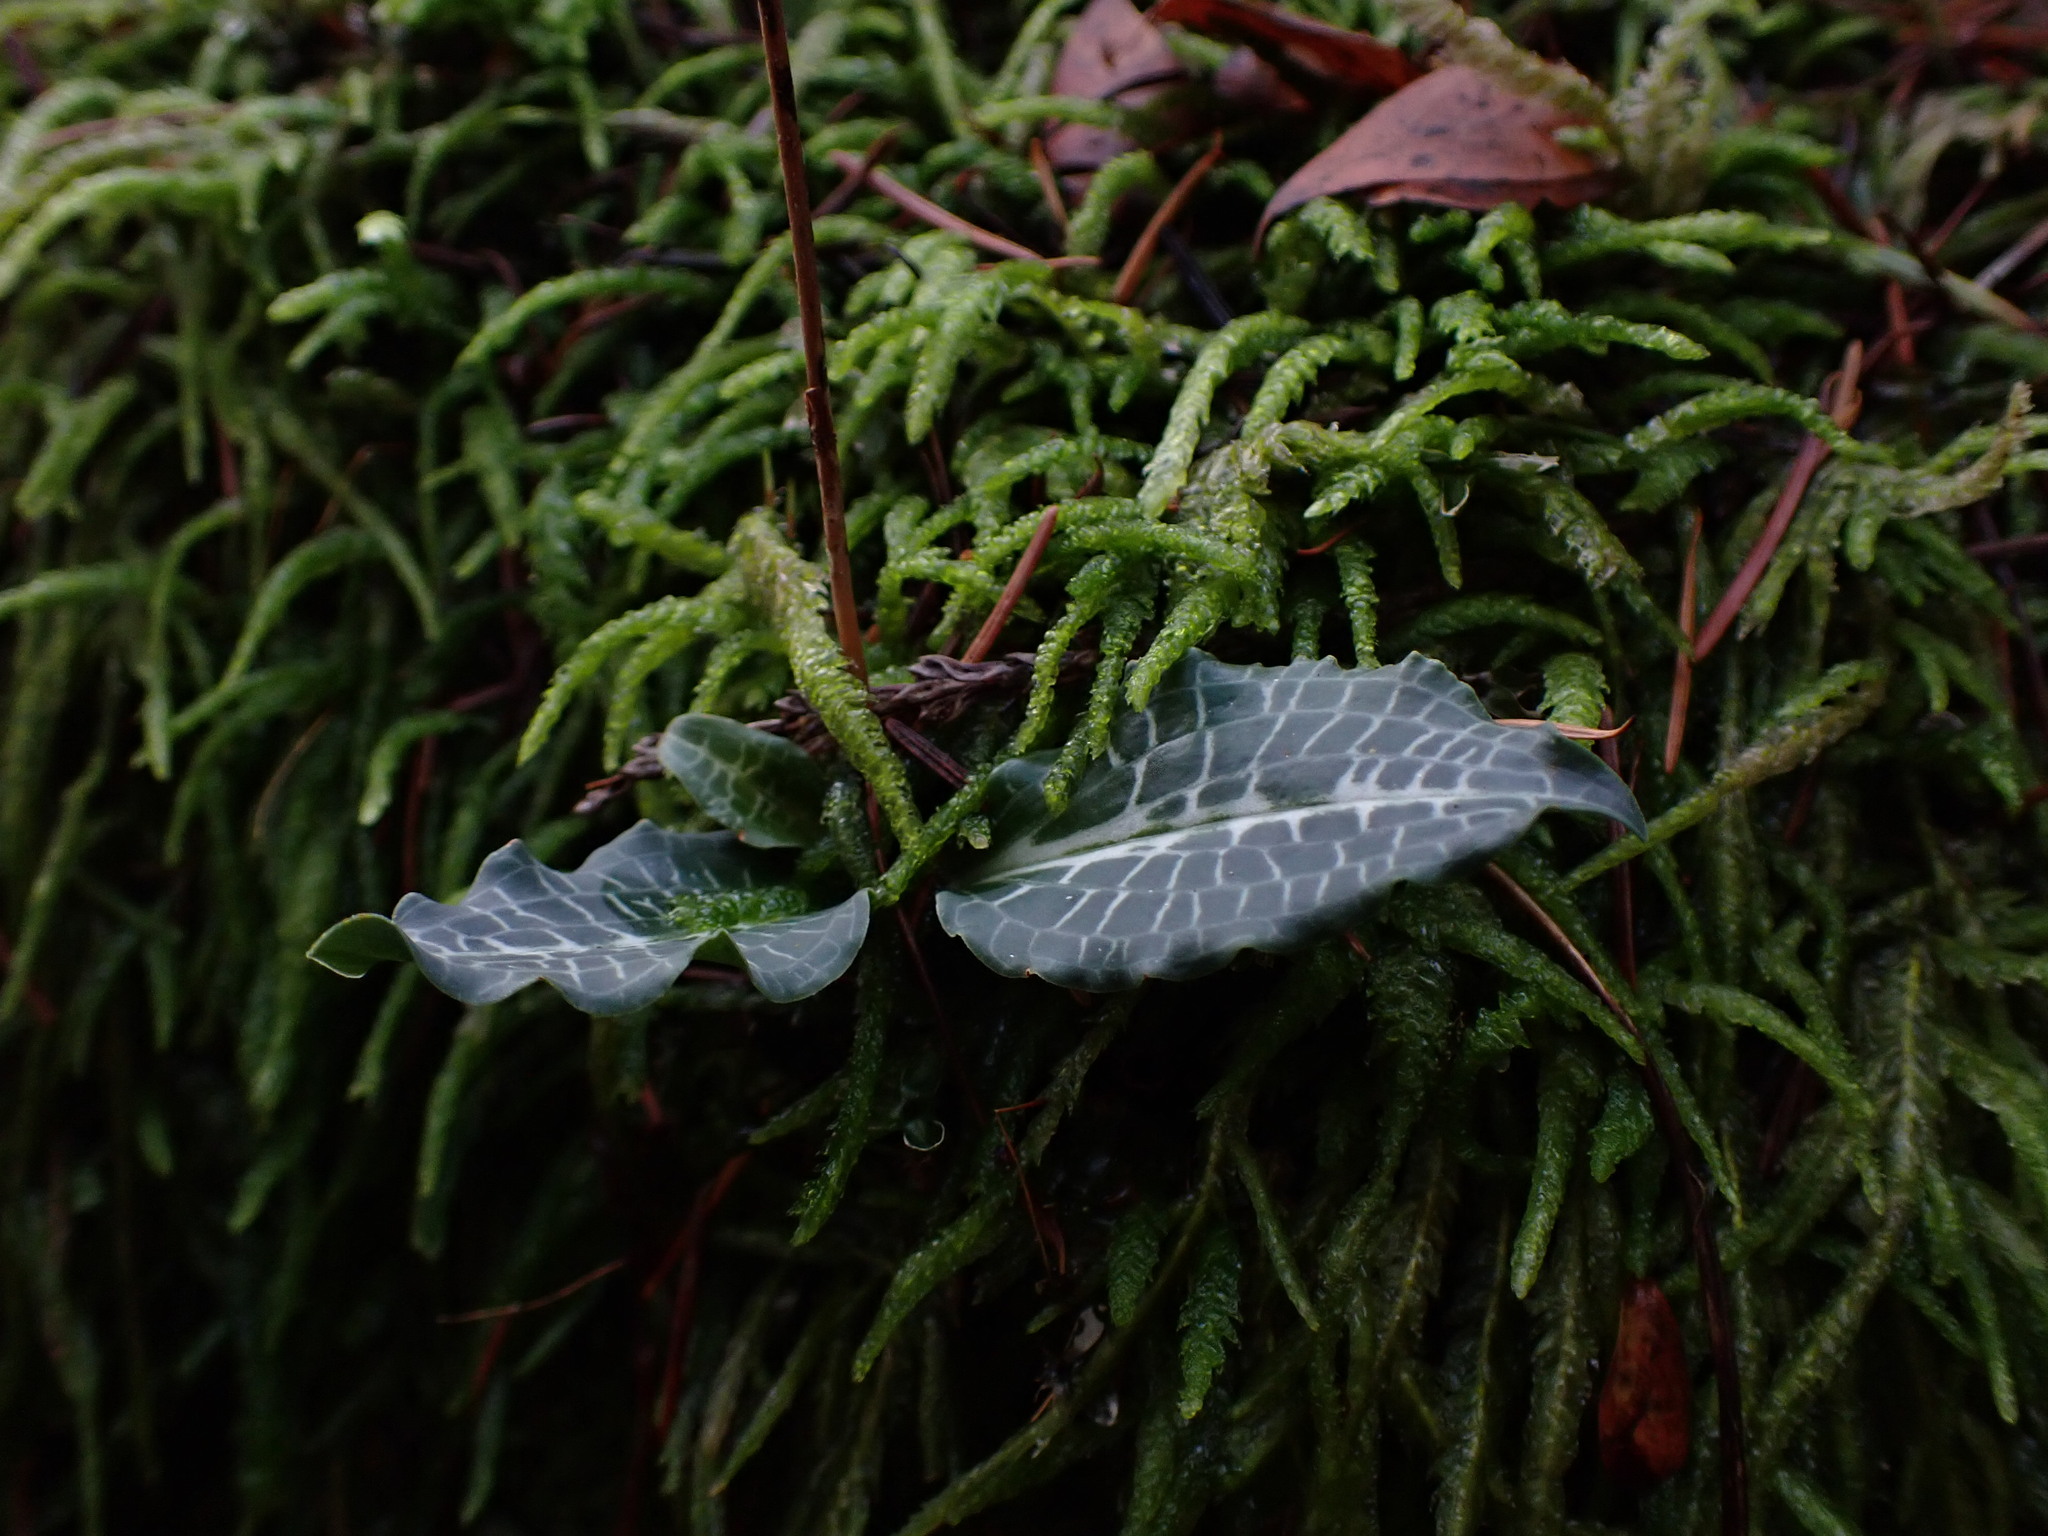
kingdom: Plantae
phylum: Tracheophyta
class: Liliopsida
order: Asparagales
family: Orchidaceae
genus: Goodyera
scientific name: Goodyera oblongifolia
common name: Giant rattlesnake-plantain
